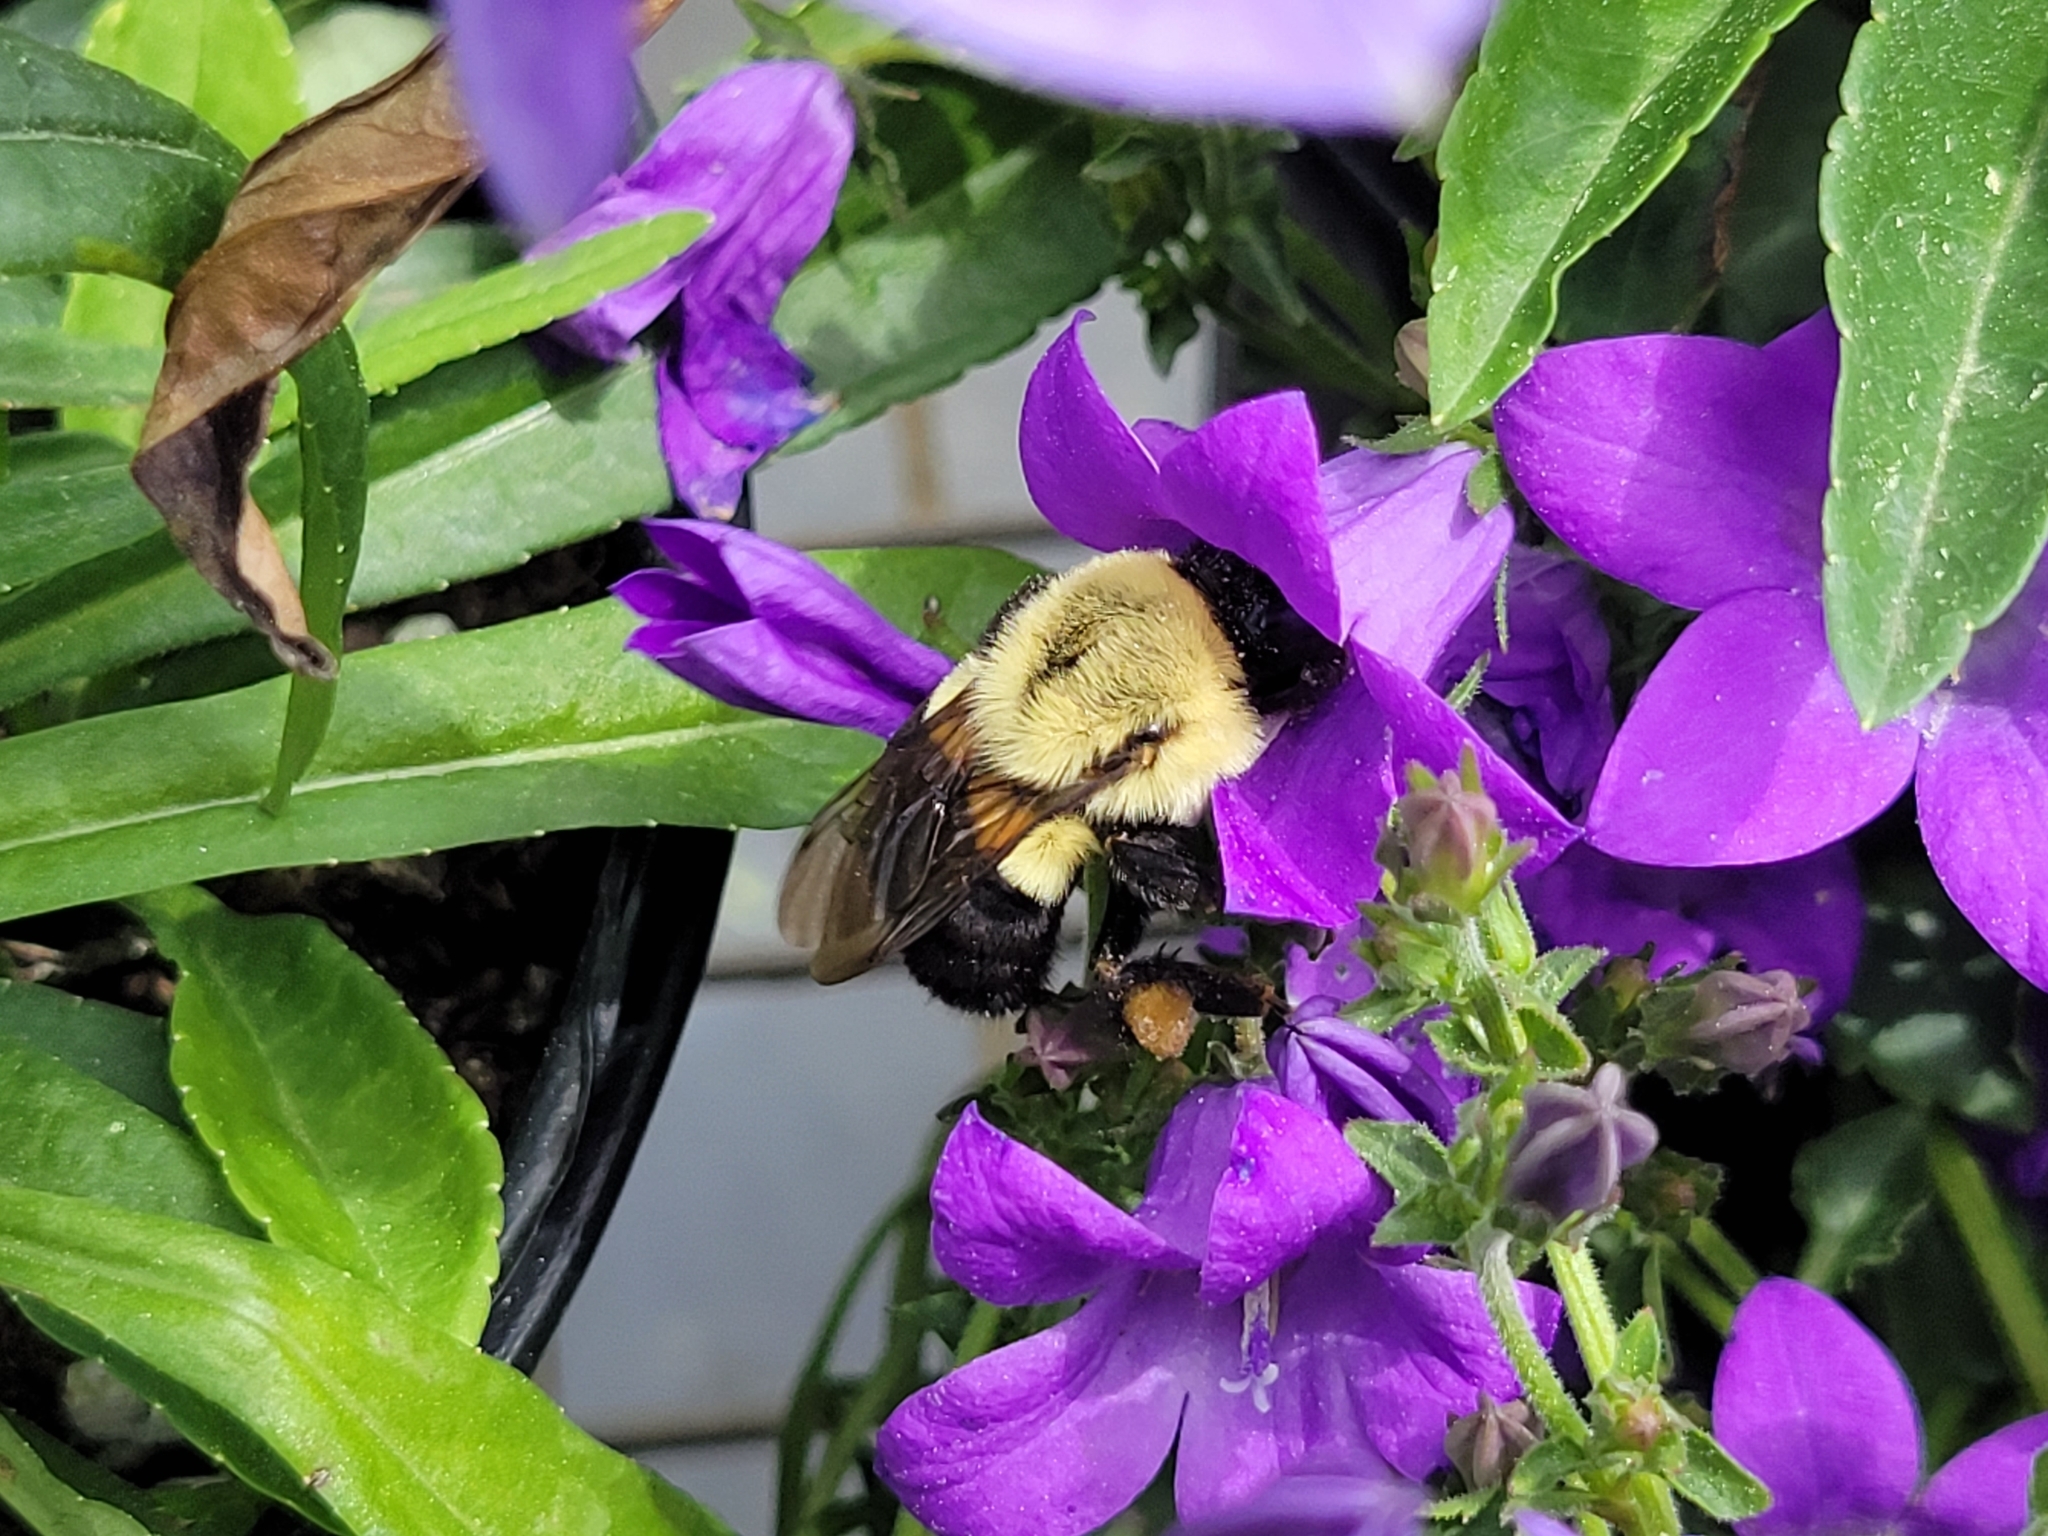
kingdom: Animalia
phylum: Arthropoda
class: Insecta
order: Hymenoptera
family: Apidae
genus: Bombus
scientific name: Bombus impatiens
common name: Common eastern bumble bee
